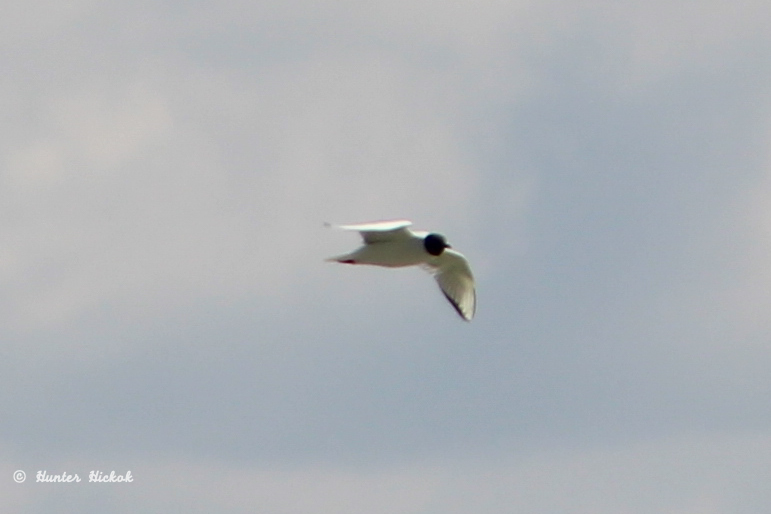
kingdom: Animalia
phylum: Chordata
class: Aves
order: Charadriiformes
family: Laridae
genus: Chroicocephalus
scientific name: Chroicocephalus philadelphia
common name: Bonaparte's gull
